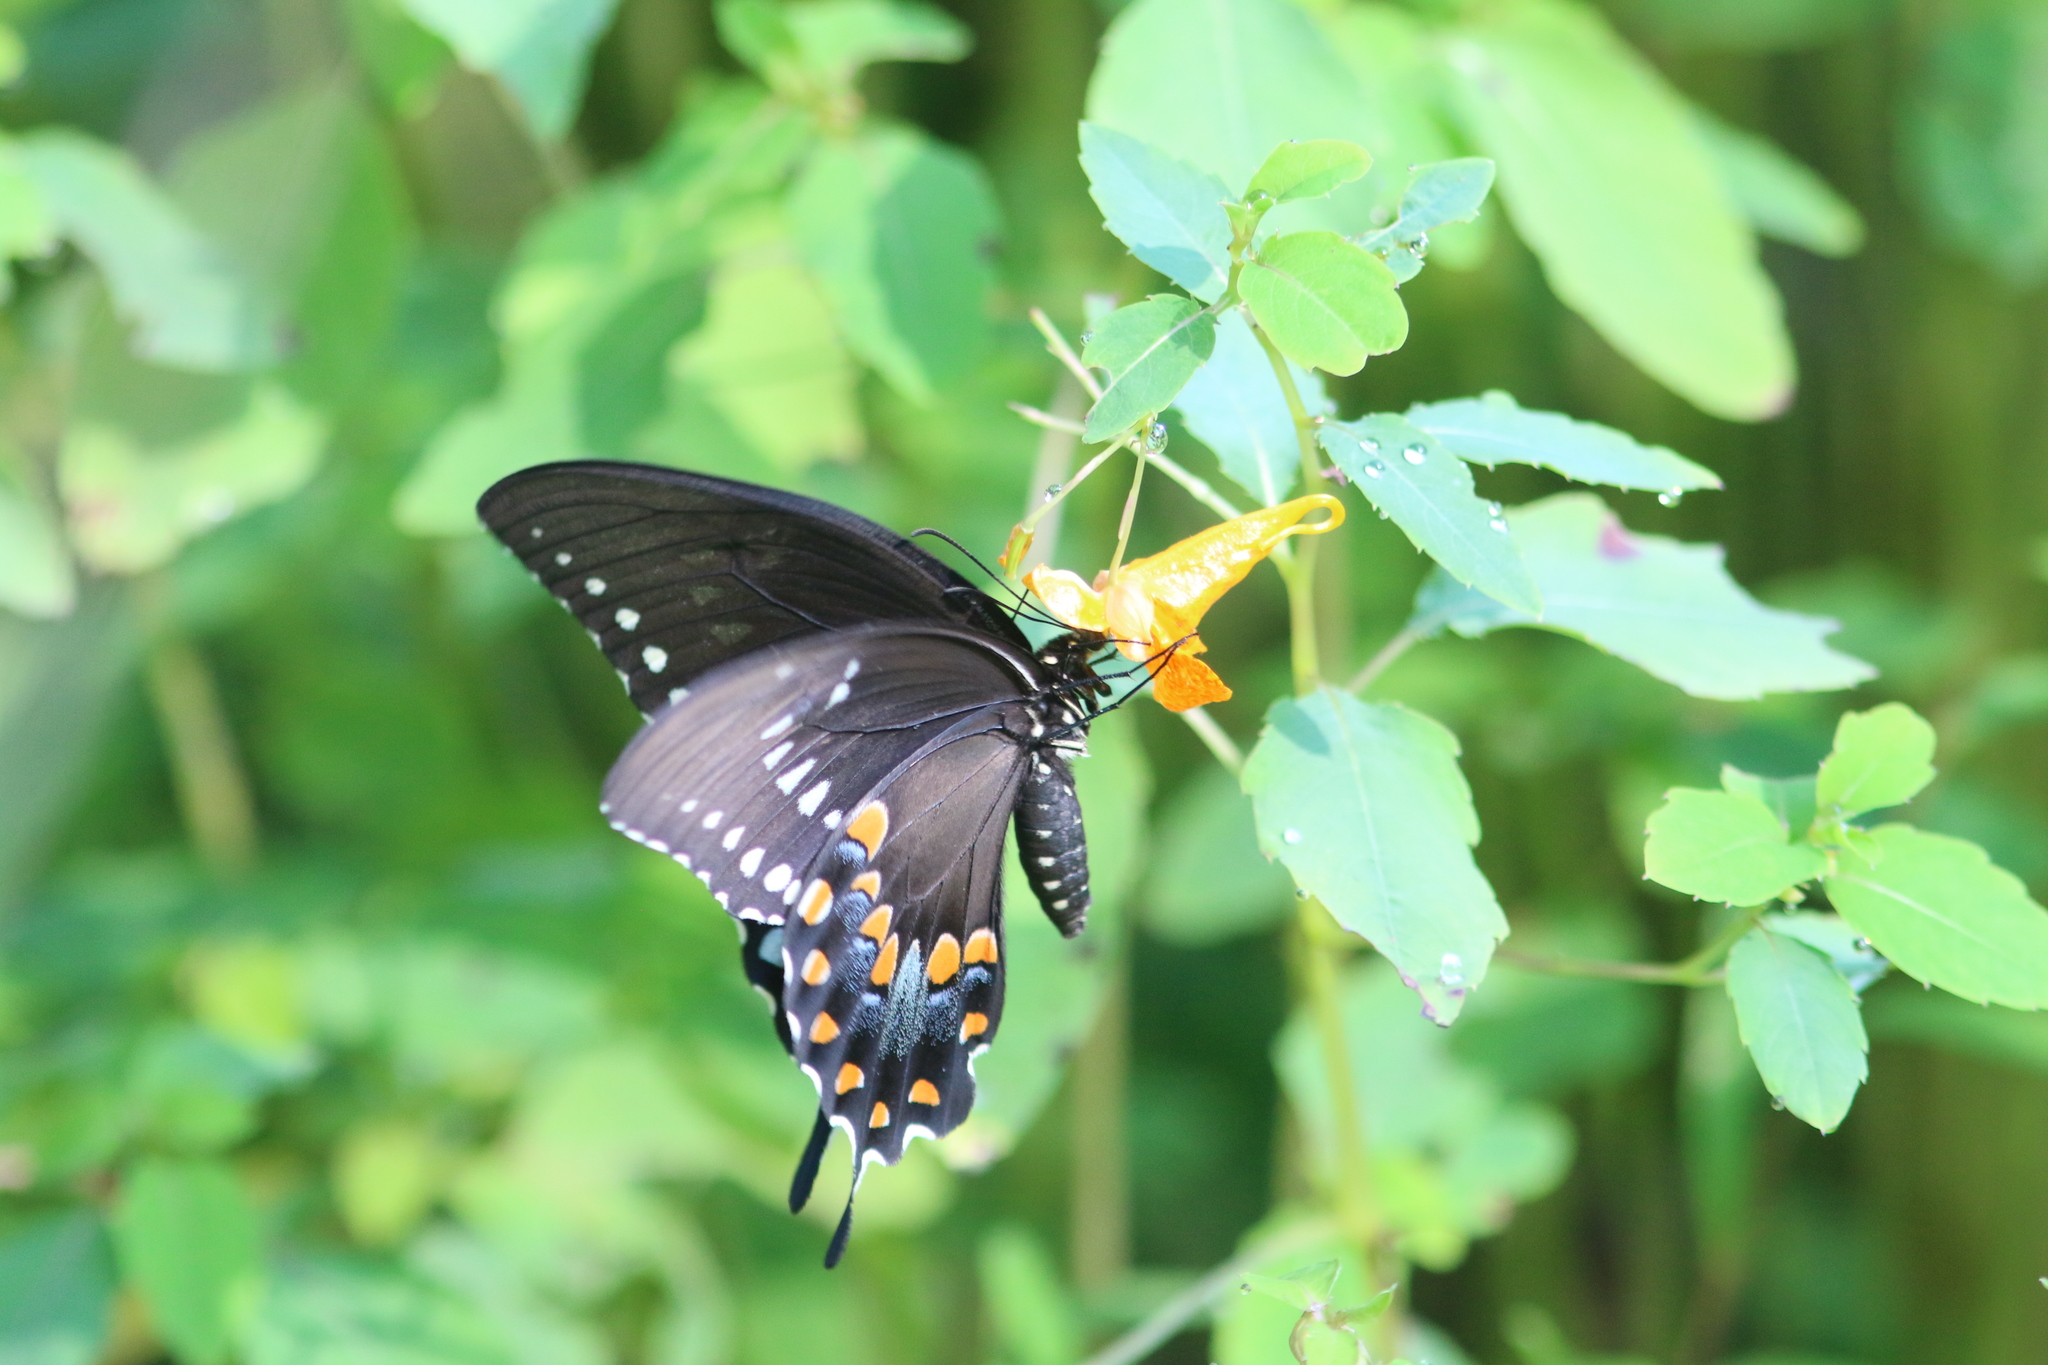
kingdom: Animalia
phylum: Arthropoda
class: Insecta
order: Lepidoptera
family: Papilionidae
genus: Papilio
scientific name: Papilio troilus
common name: Spicebush swallowtail
